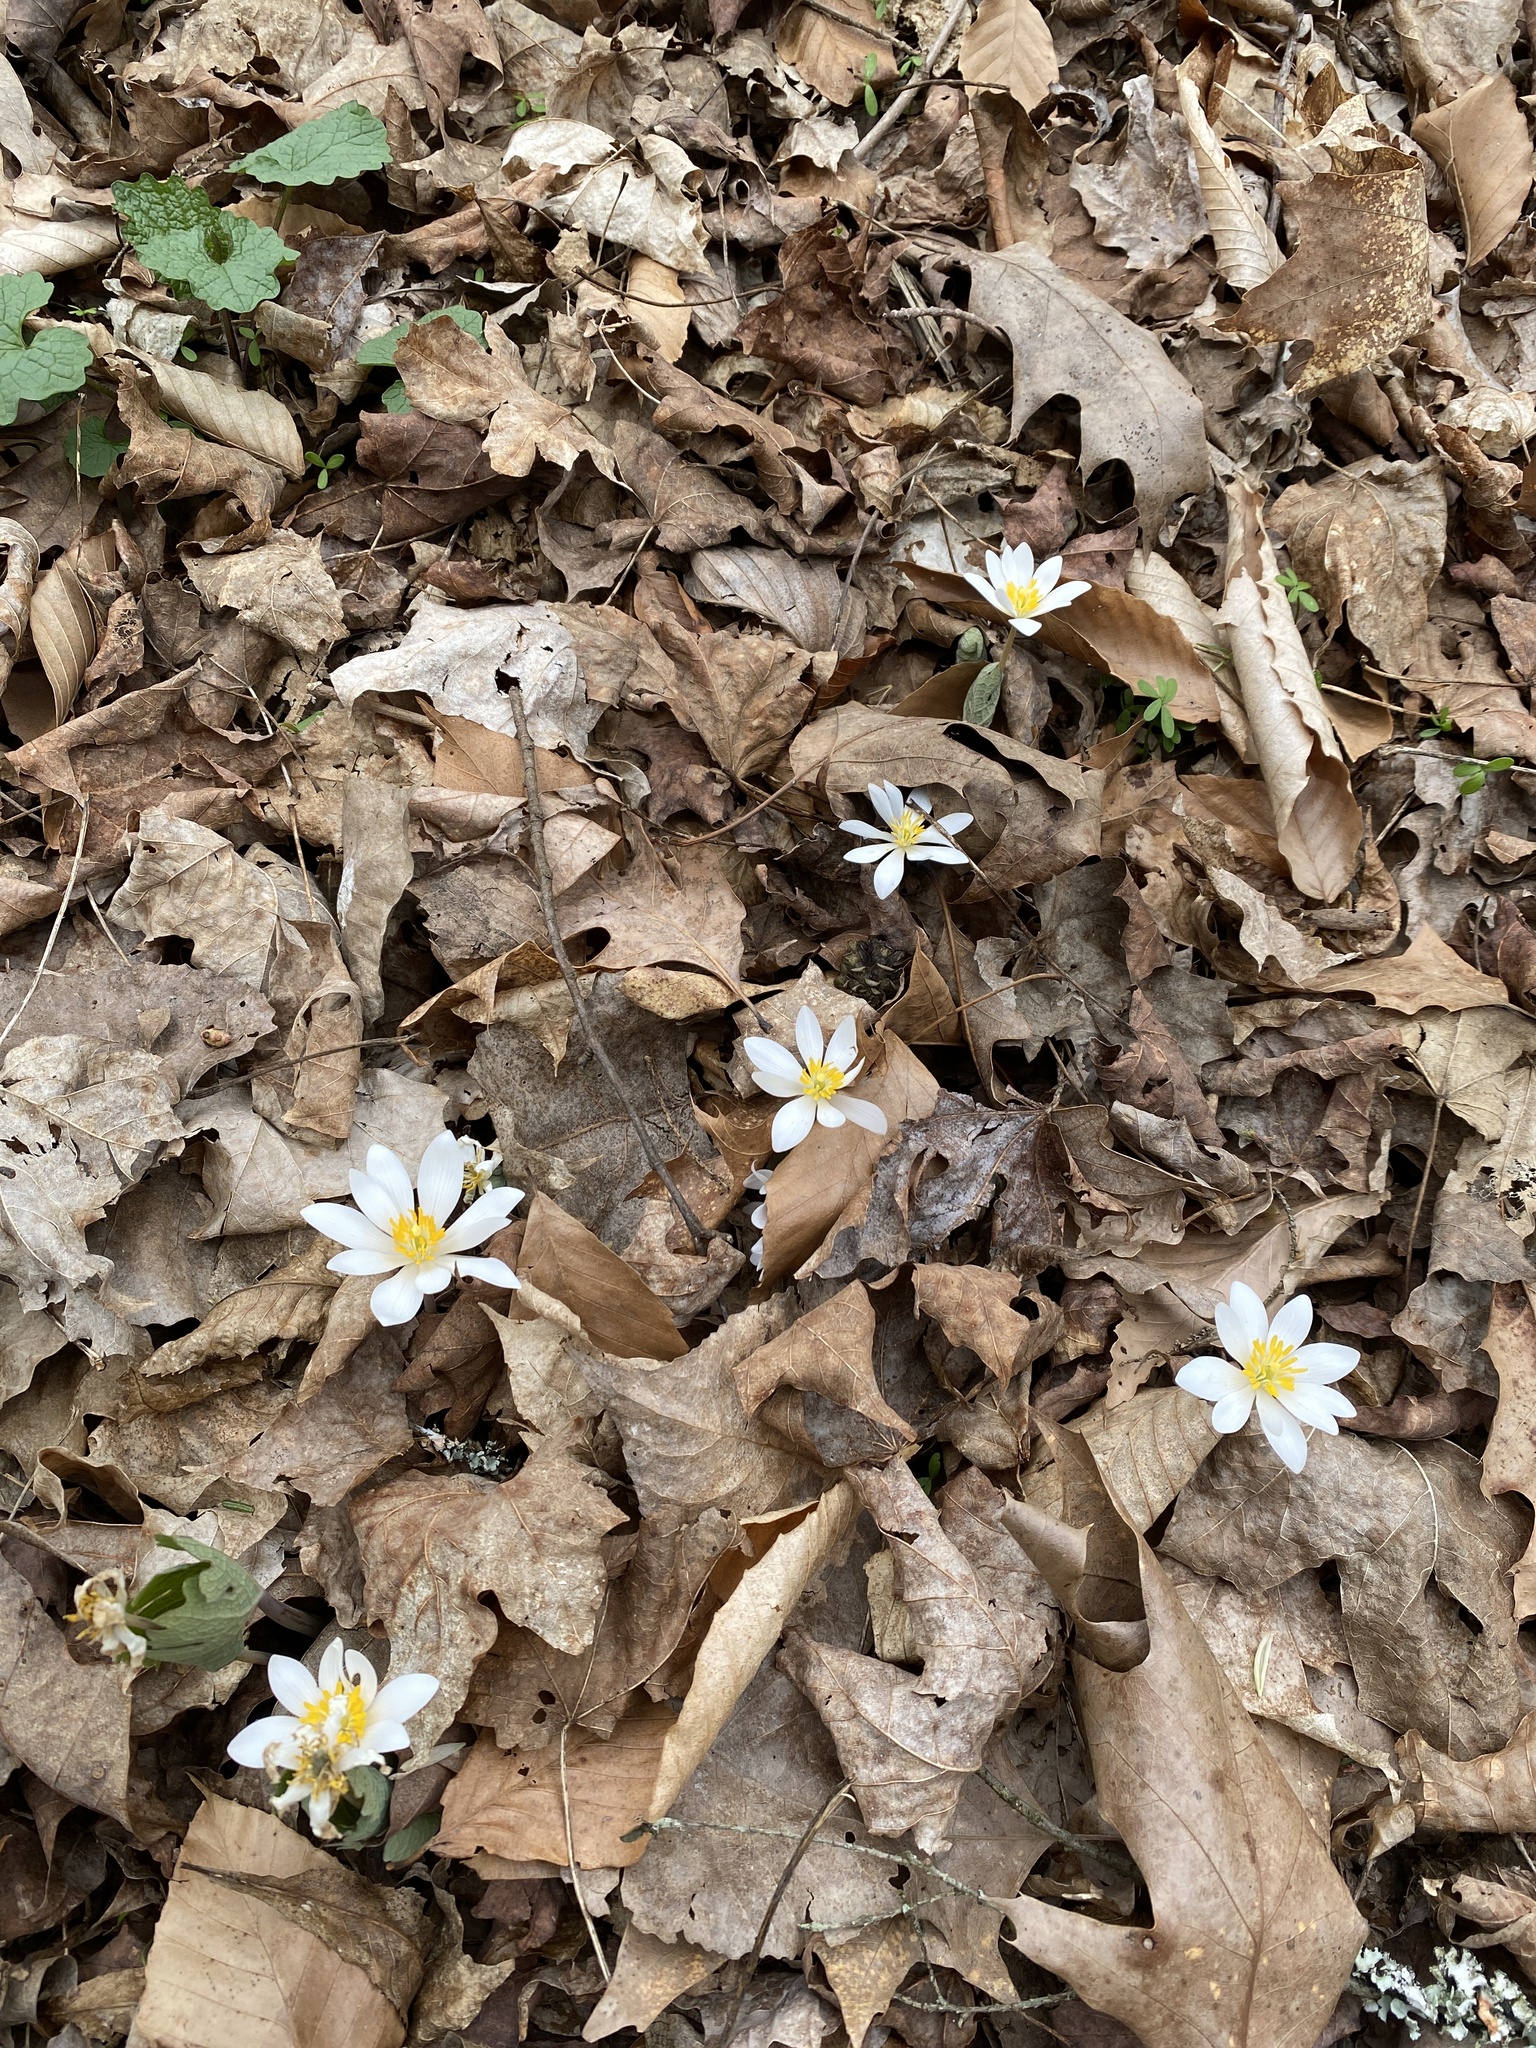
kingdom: Plantae
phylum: Tracheophyta
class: Magnoliopsida
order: Ranunculales
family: Papaveraceae
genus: Sanguinaria
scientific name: Sanguinaria canadensis
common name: Bloodroot
